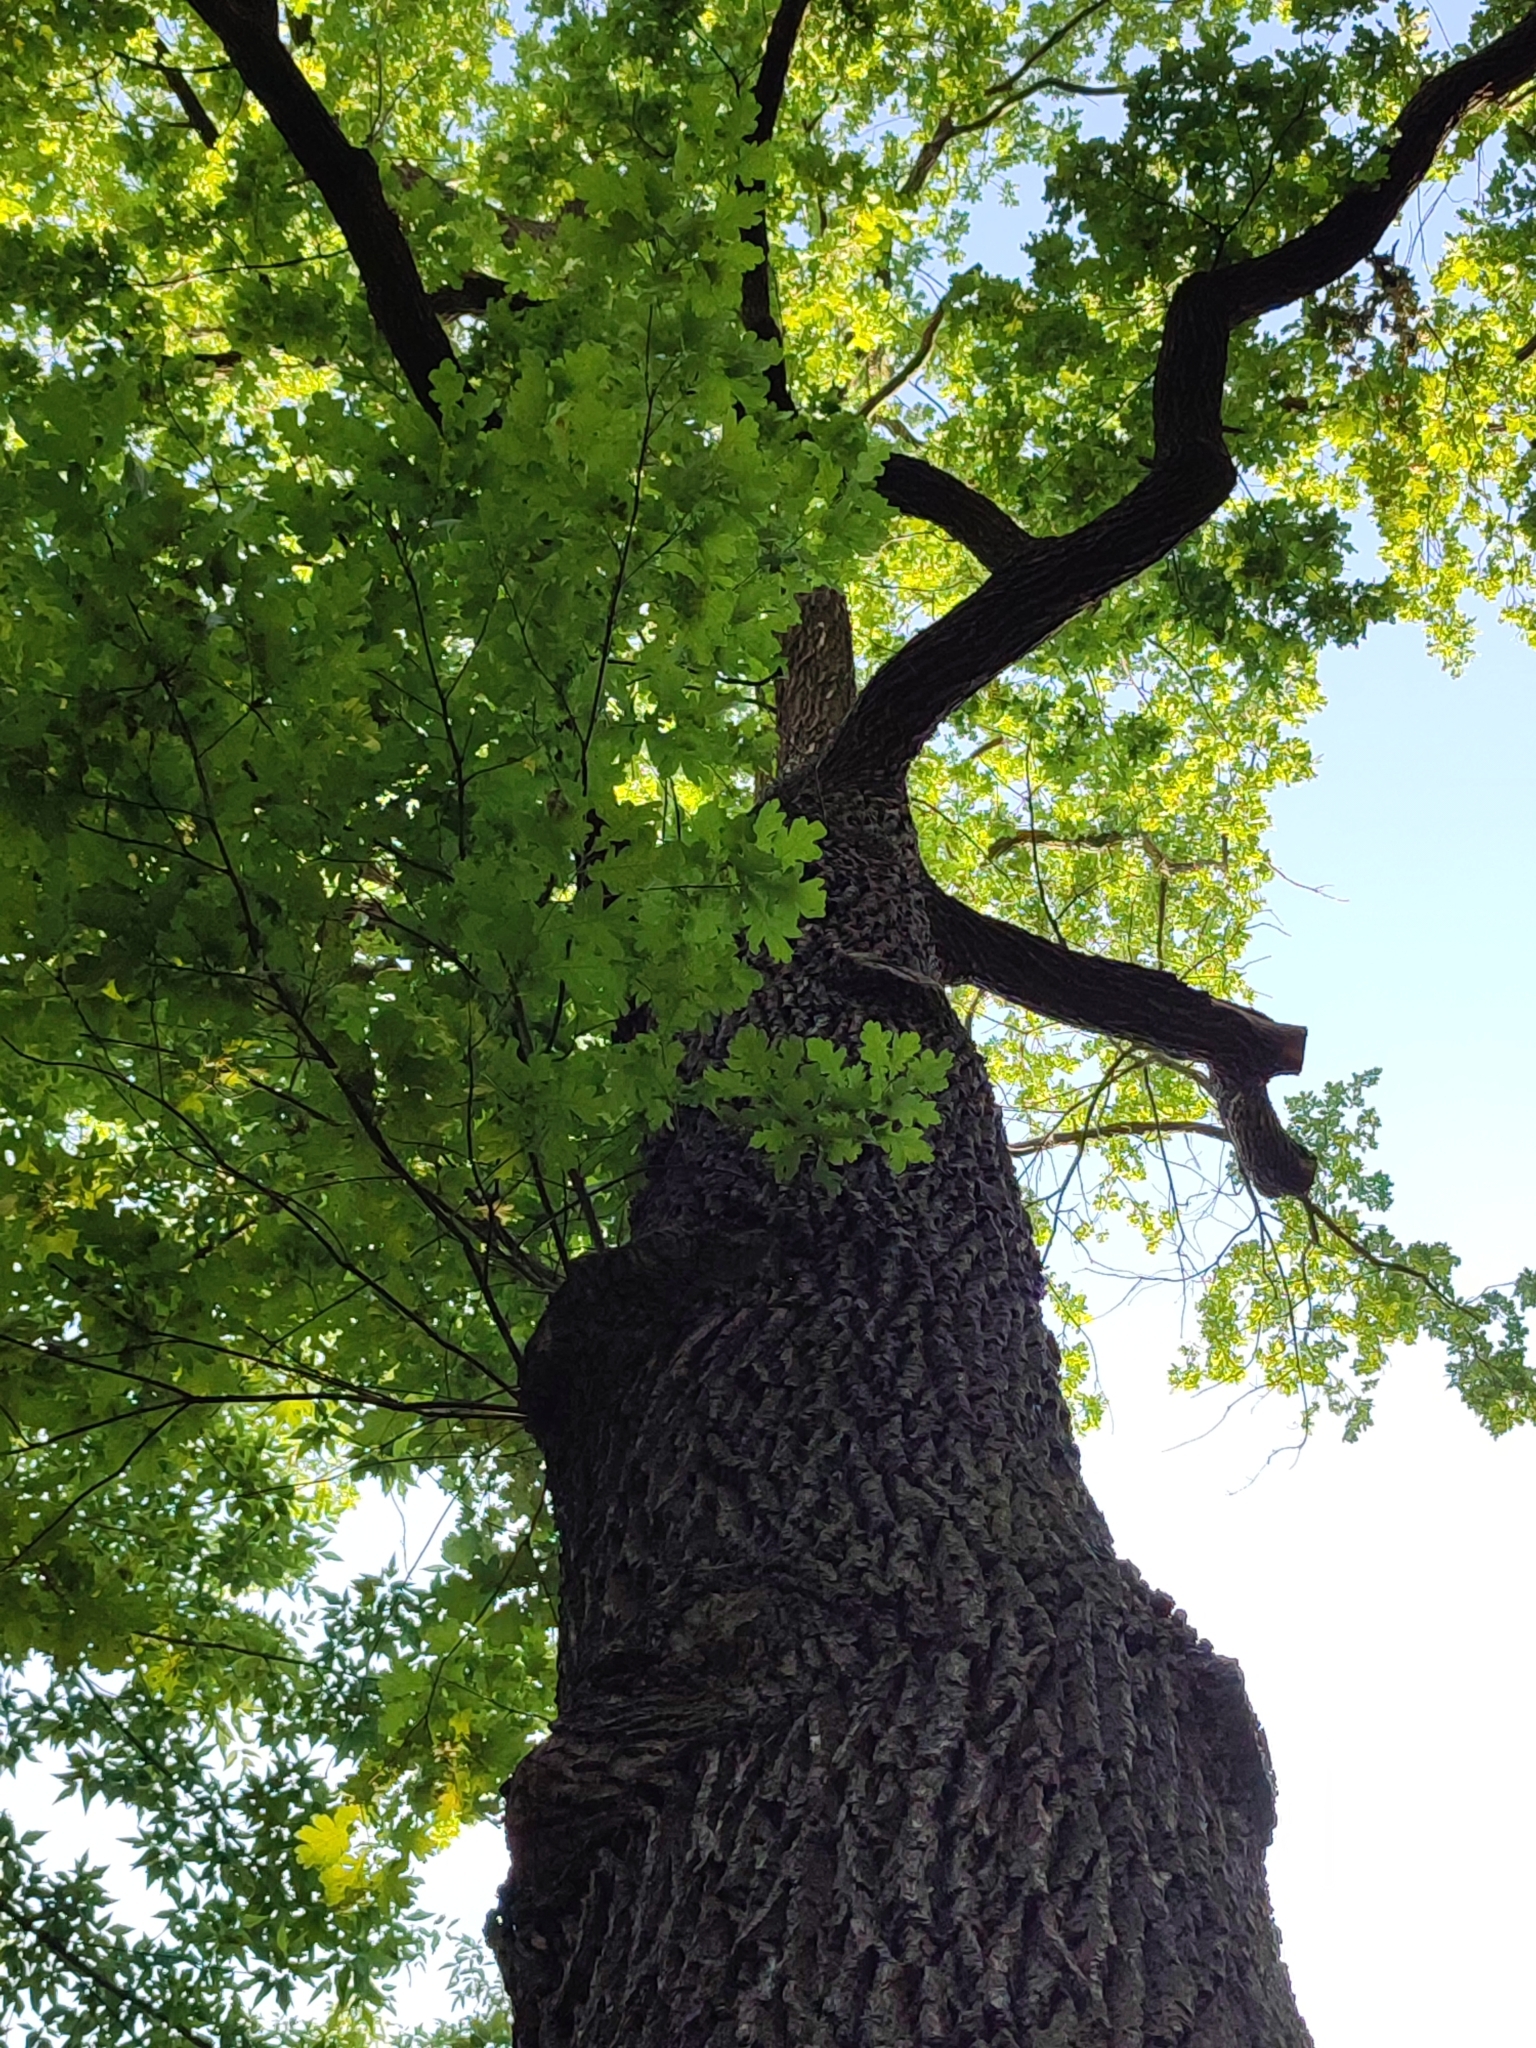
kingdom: Plantae
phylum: Tracheophyta
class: Magnoliopsida
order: Fagales
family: Fagaceae
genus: Quercus
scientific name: Quercus robur
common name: Pedunculate oak
